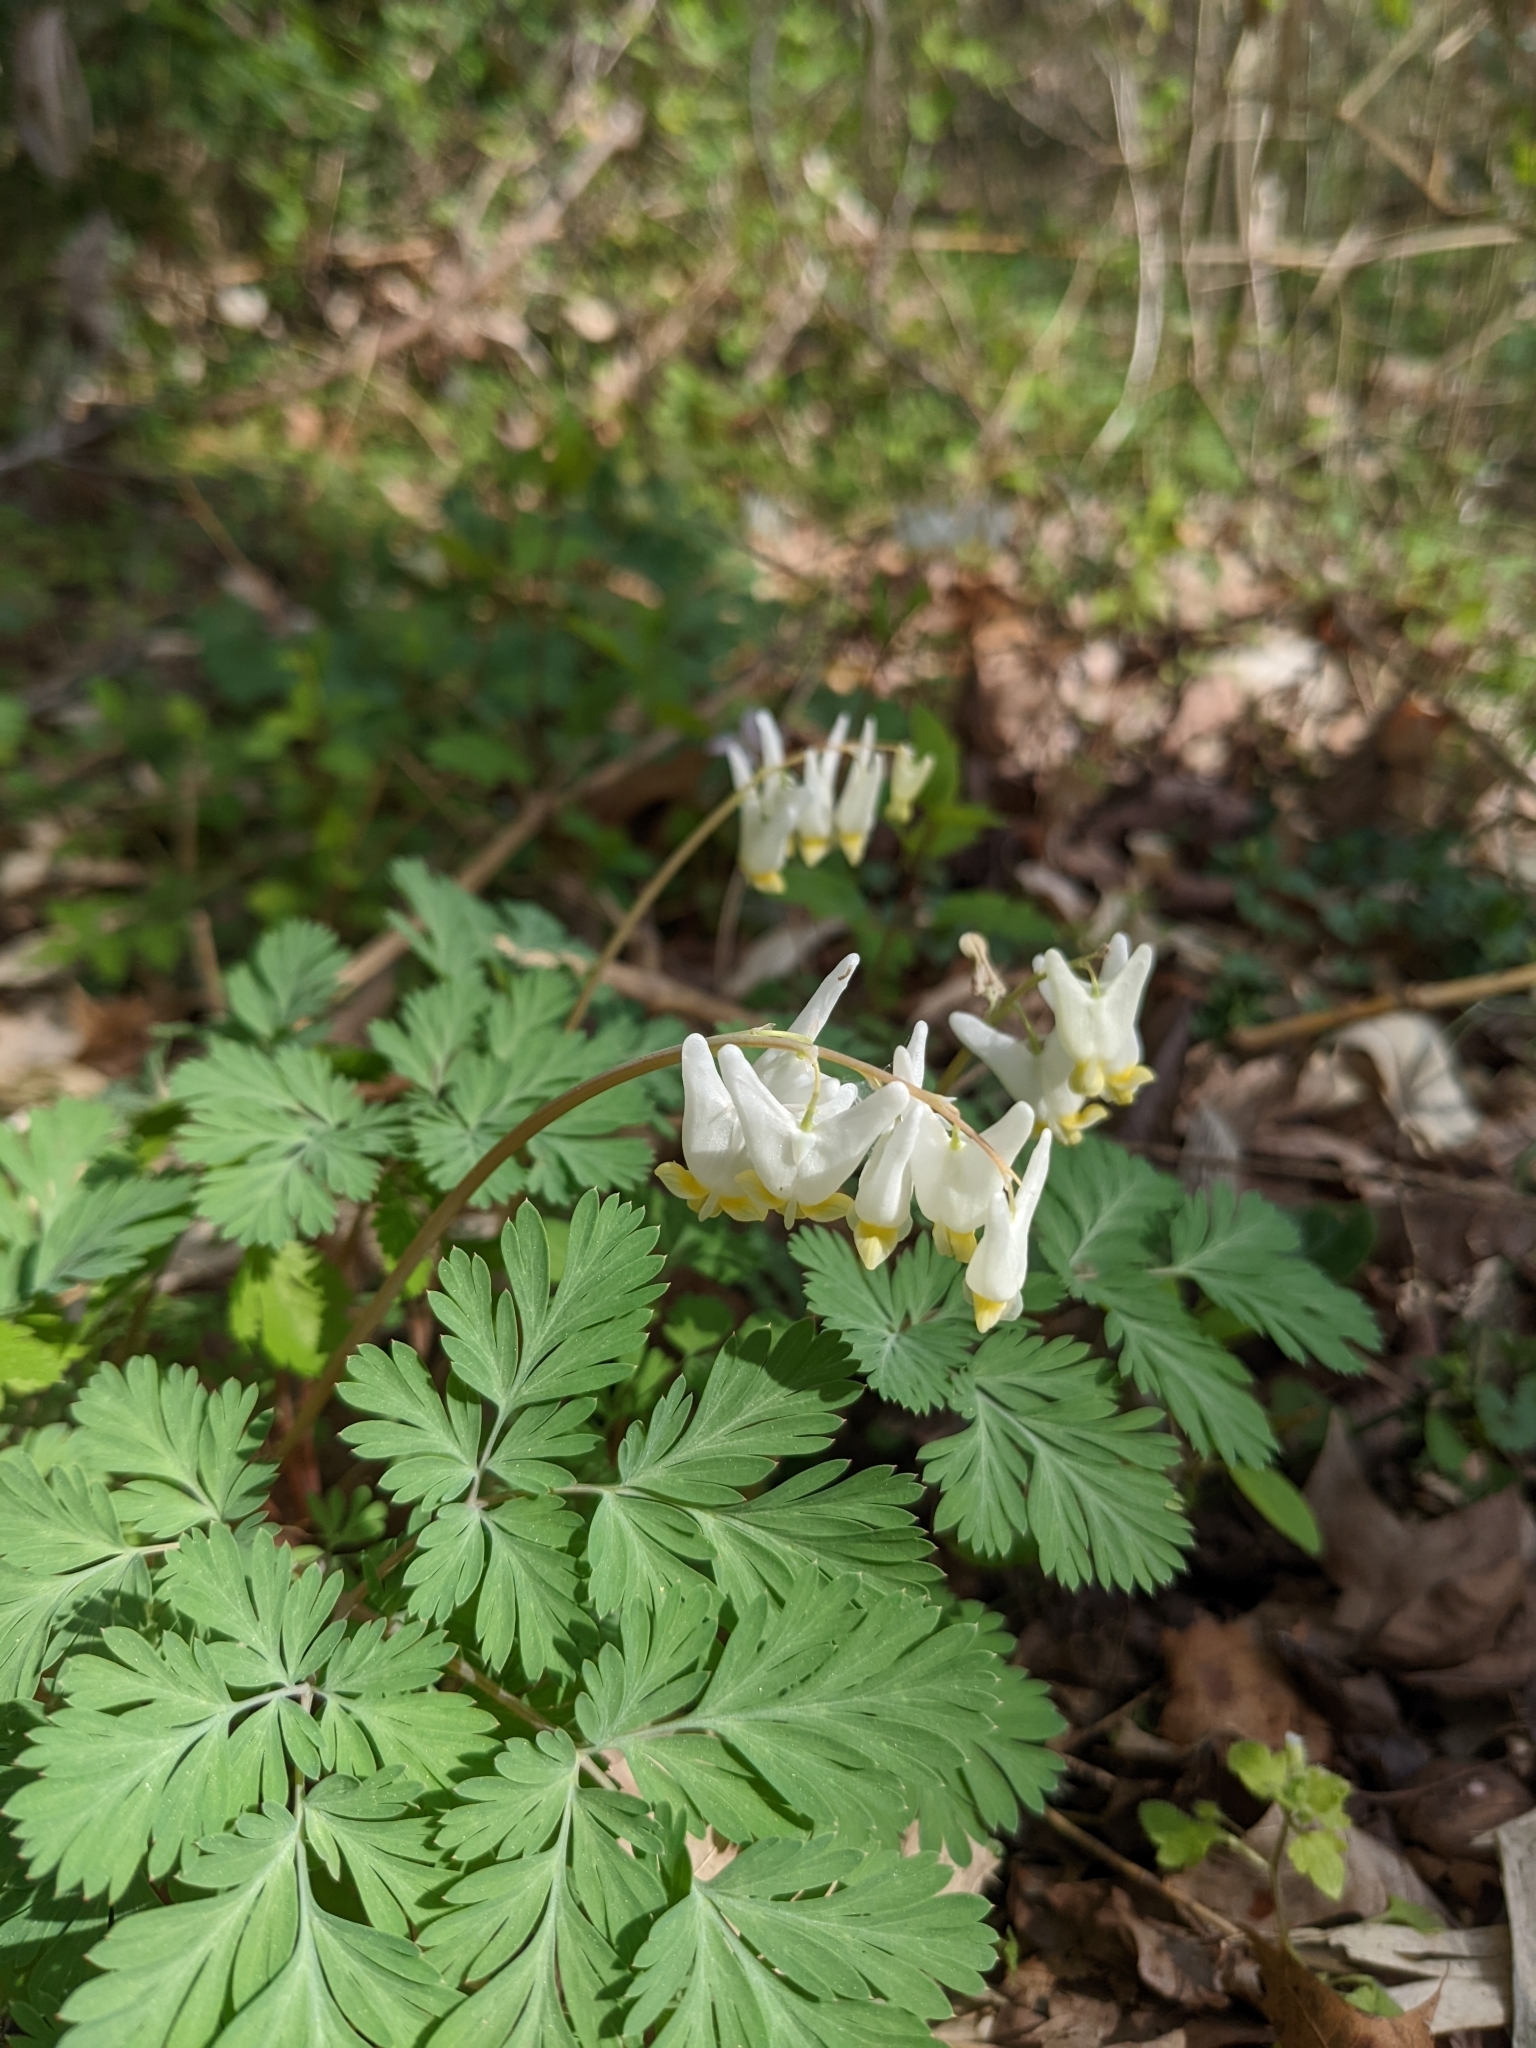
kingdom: Plantae
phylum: Tracheophyta
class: Magnoliopsida
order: Ranunculales
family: Papaveraceae
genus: Dicentra
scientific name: Dicentra cucullaria
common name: Dutchman's breeches
